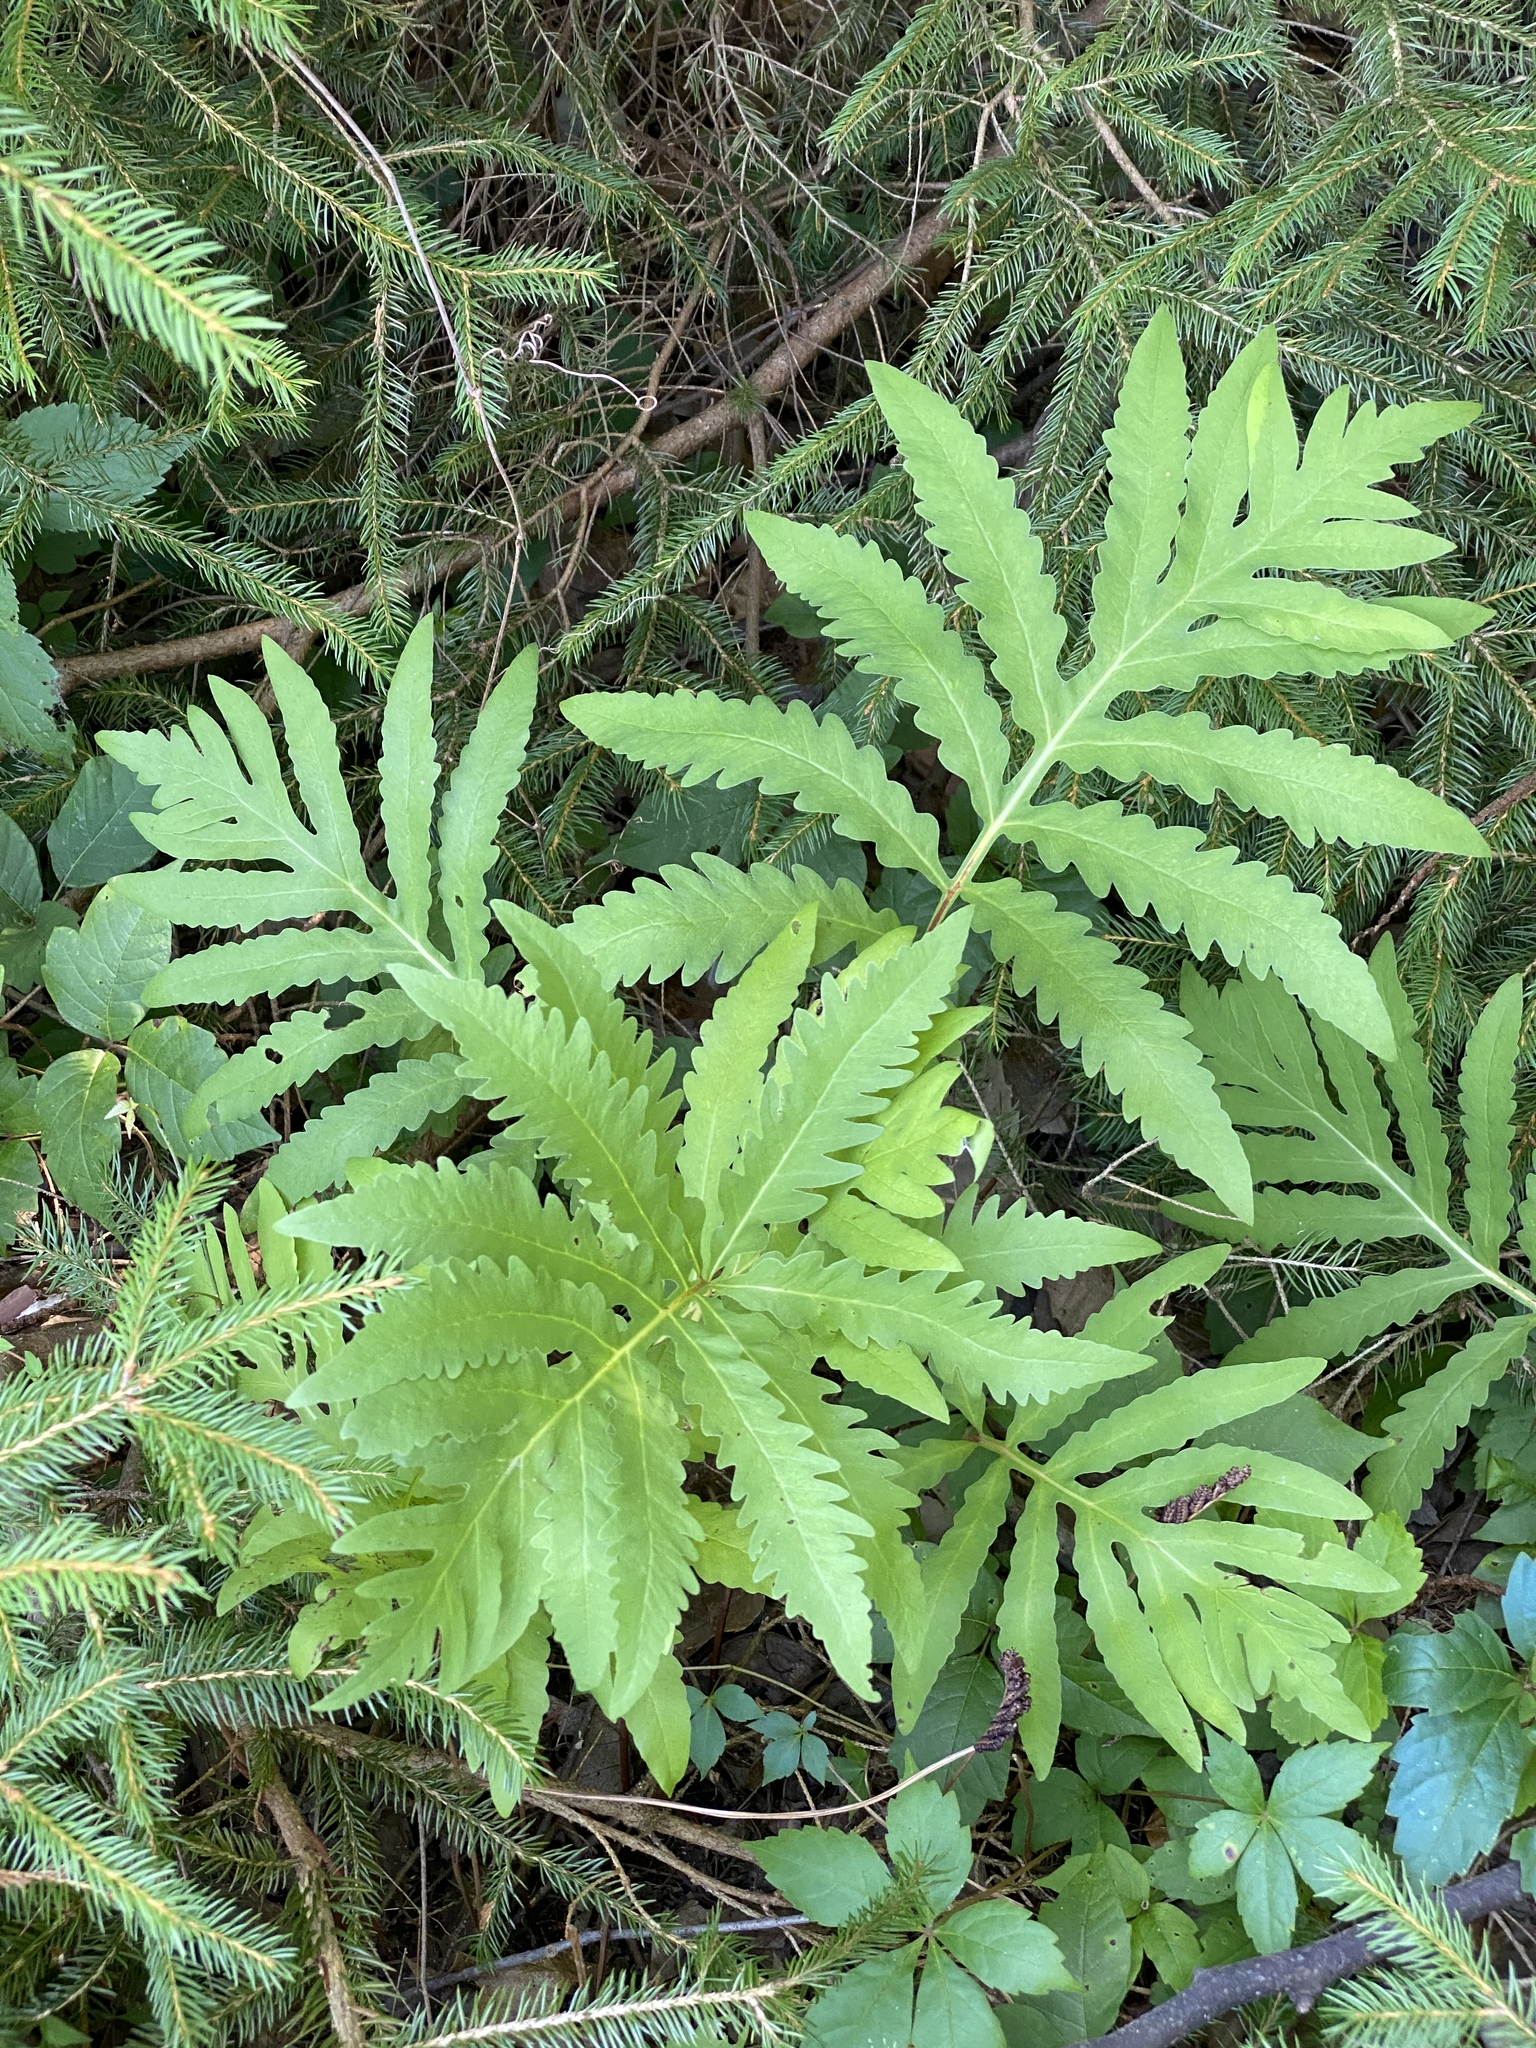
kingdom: Plantae
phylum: Tracheophyta
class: Polypodiopsida
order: Polypodiales
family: Onocleaceae
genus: Onoclea
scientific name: Onoclea sensibilis
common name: Sensitive fern
